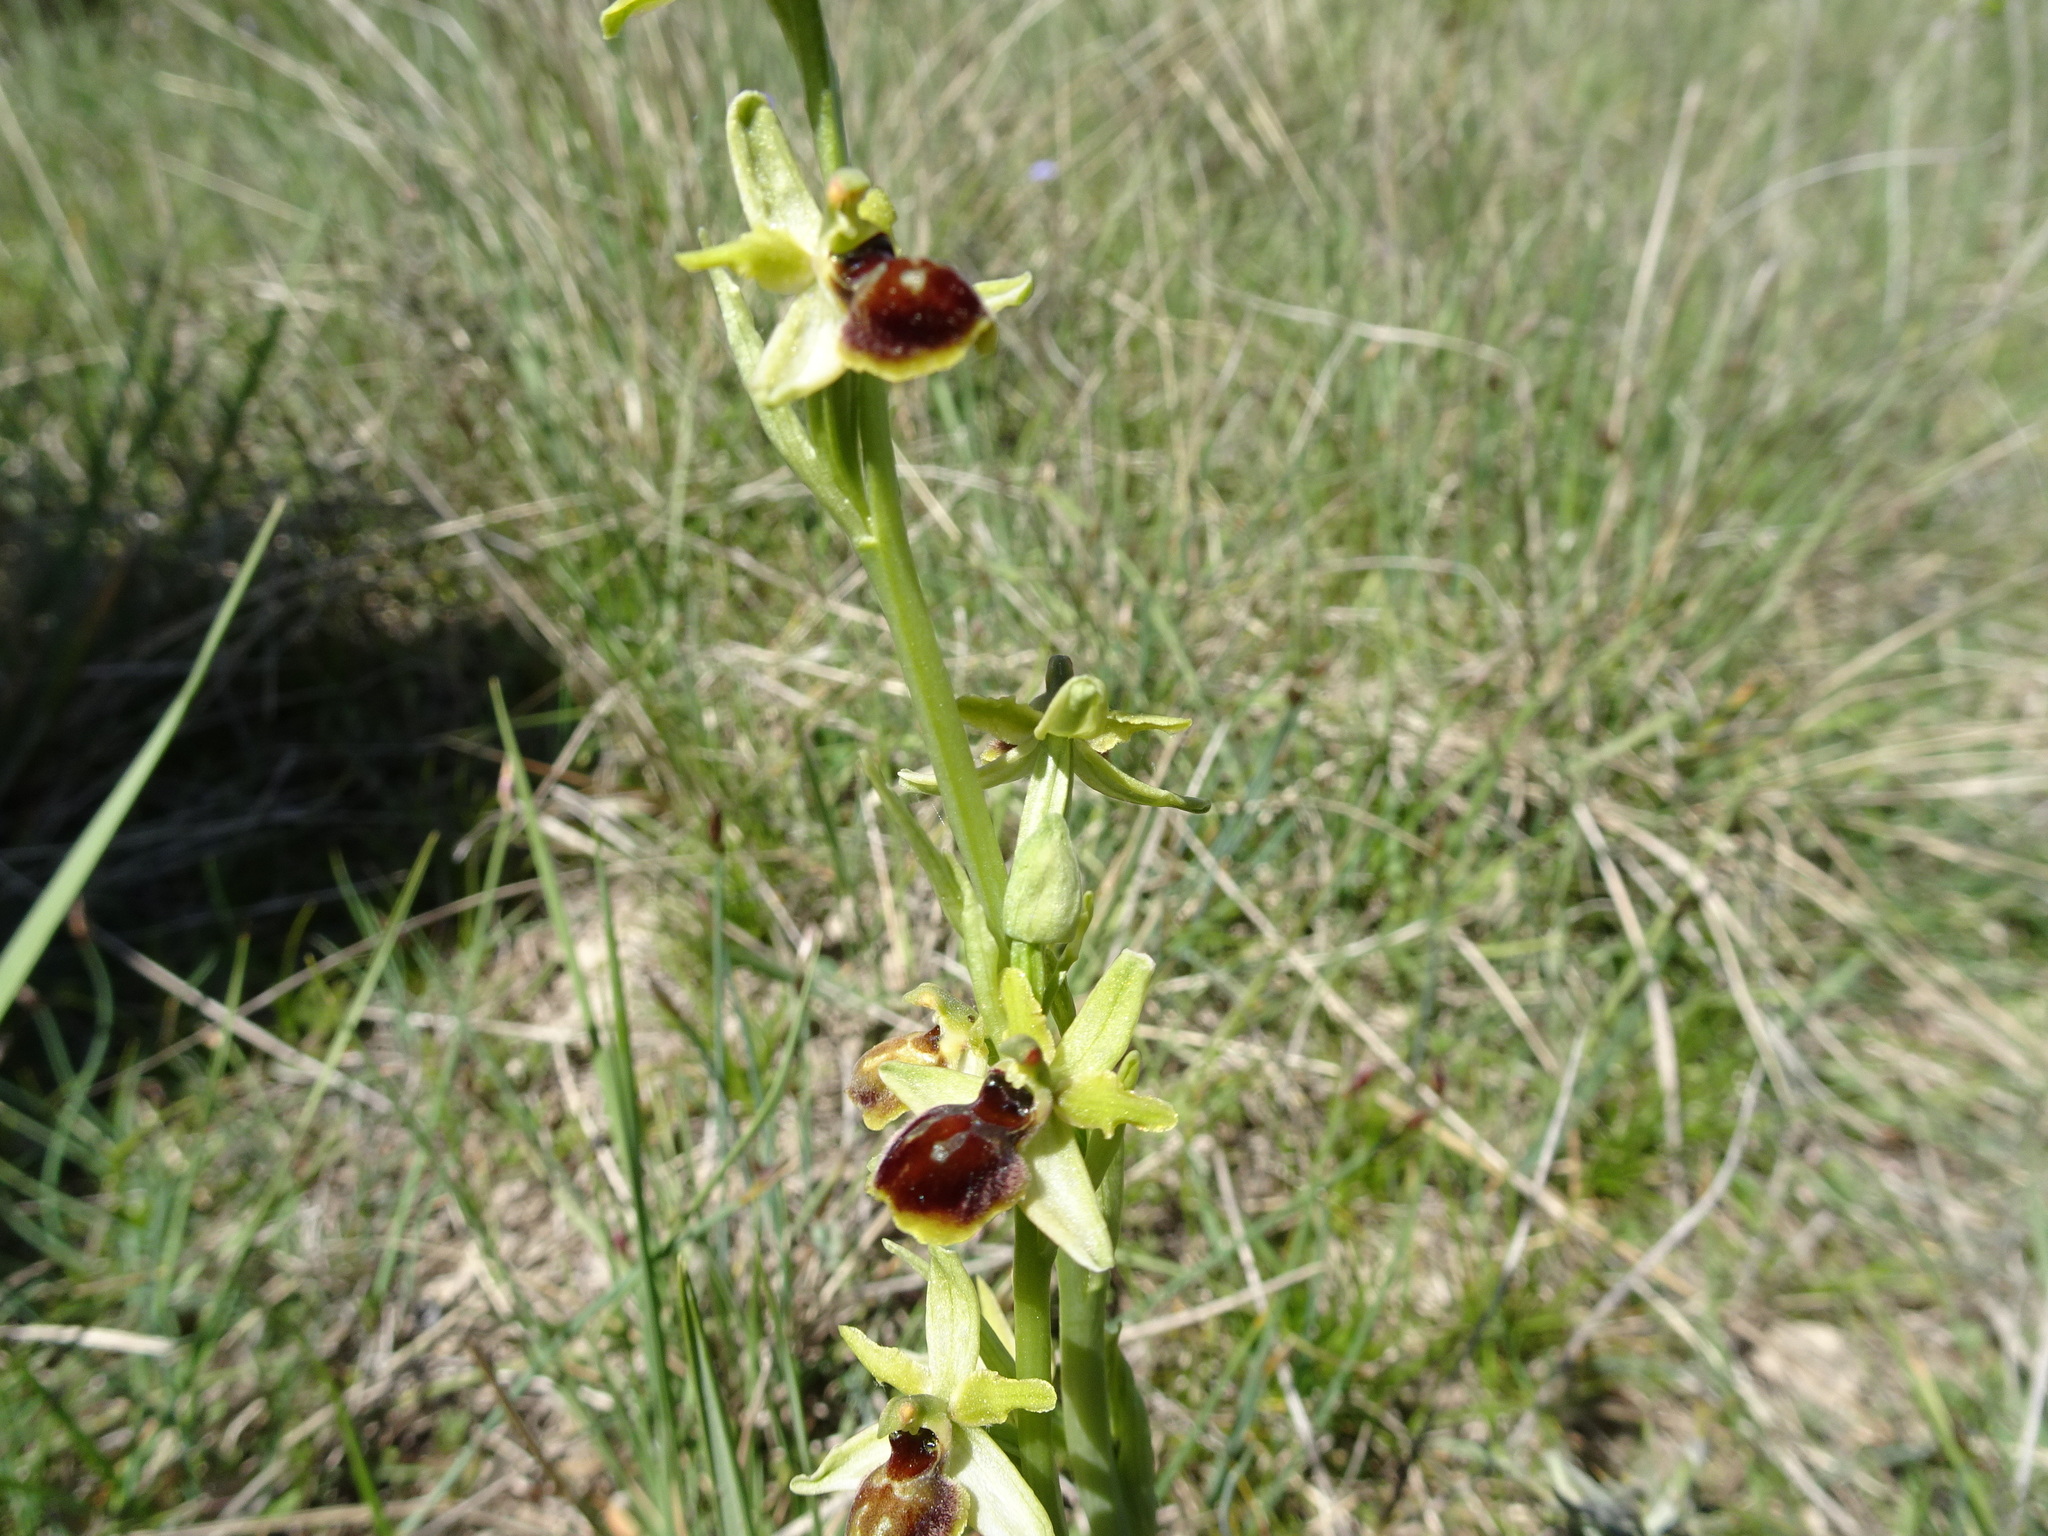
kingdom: Plantae
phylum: Tracheophyta
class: Liliopsida
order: Asparagales
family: Orchidaceae
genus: Ophrys
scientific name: Ophrys sphegodes
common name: Early spider-orchid
